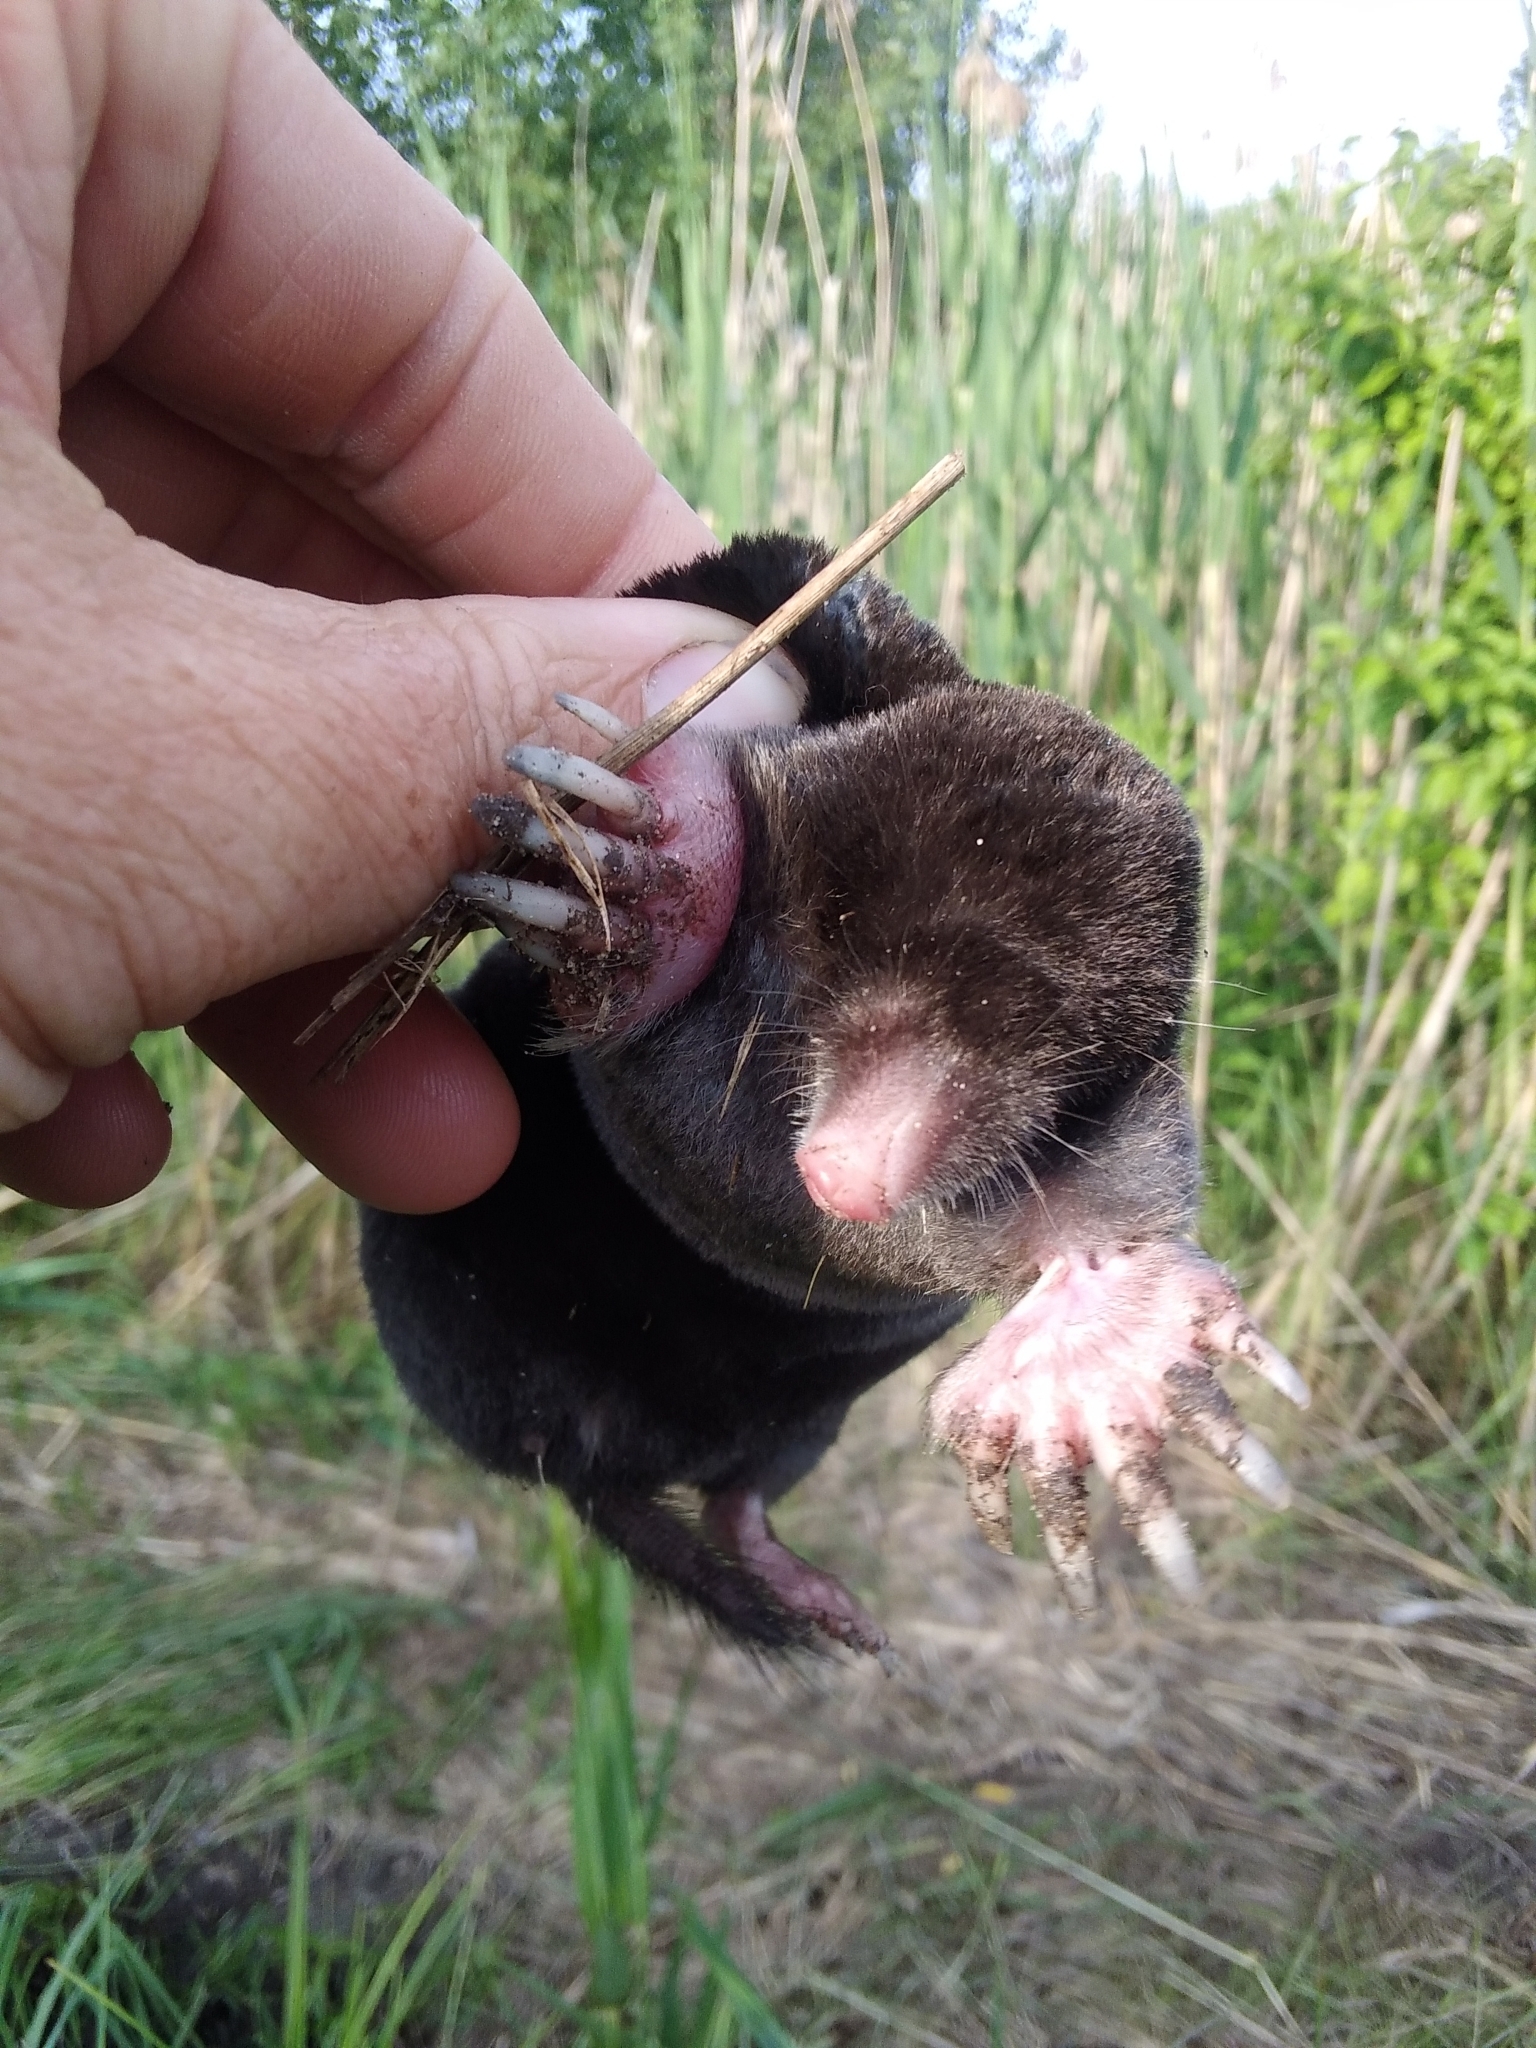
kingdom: Animalia
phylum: Chordata
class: Mammalia
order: Soricomorpha
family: Talpidae
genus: Talpa
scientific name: Talpa europaea
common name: European mole
